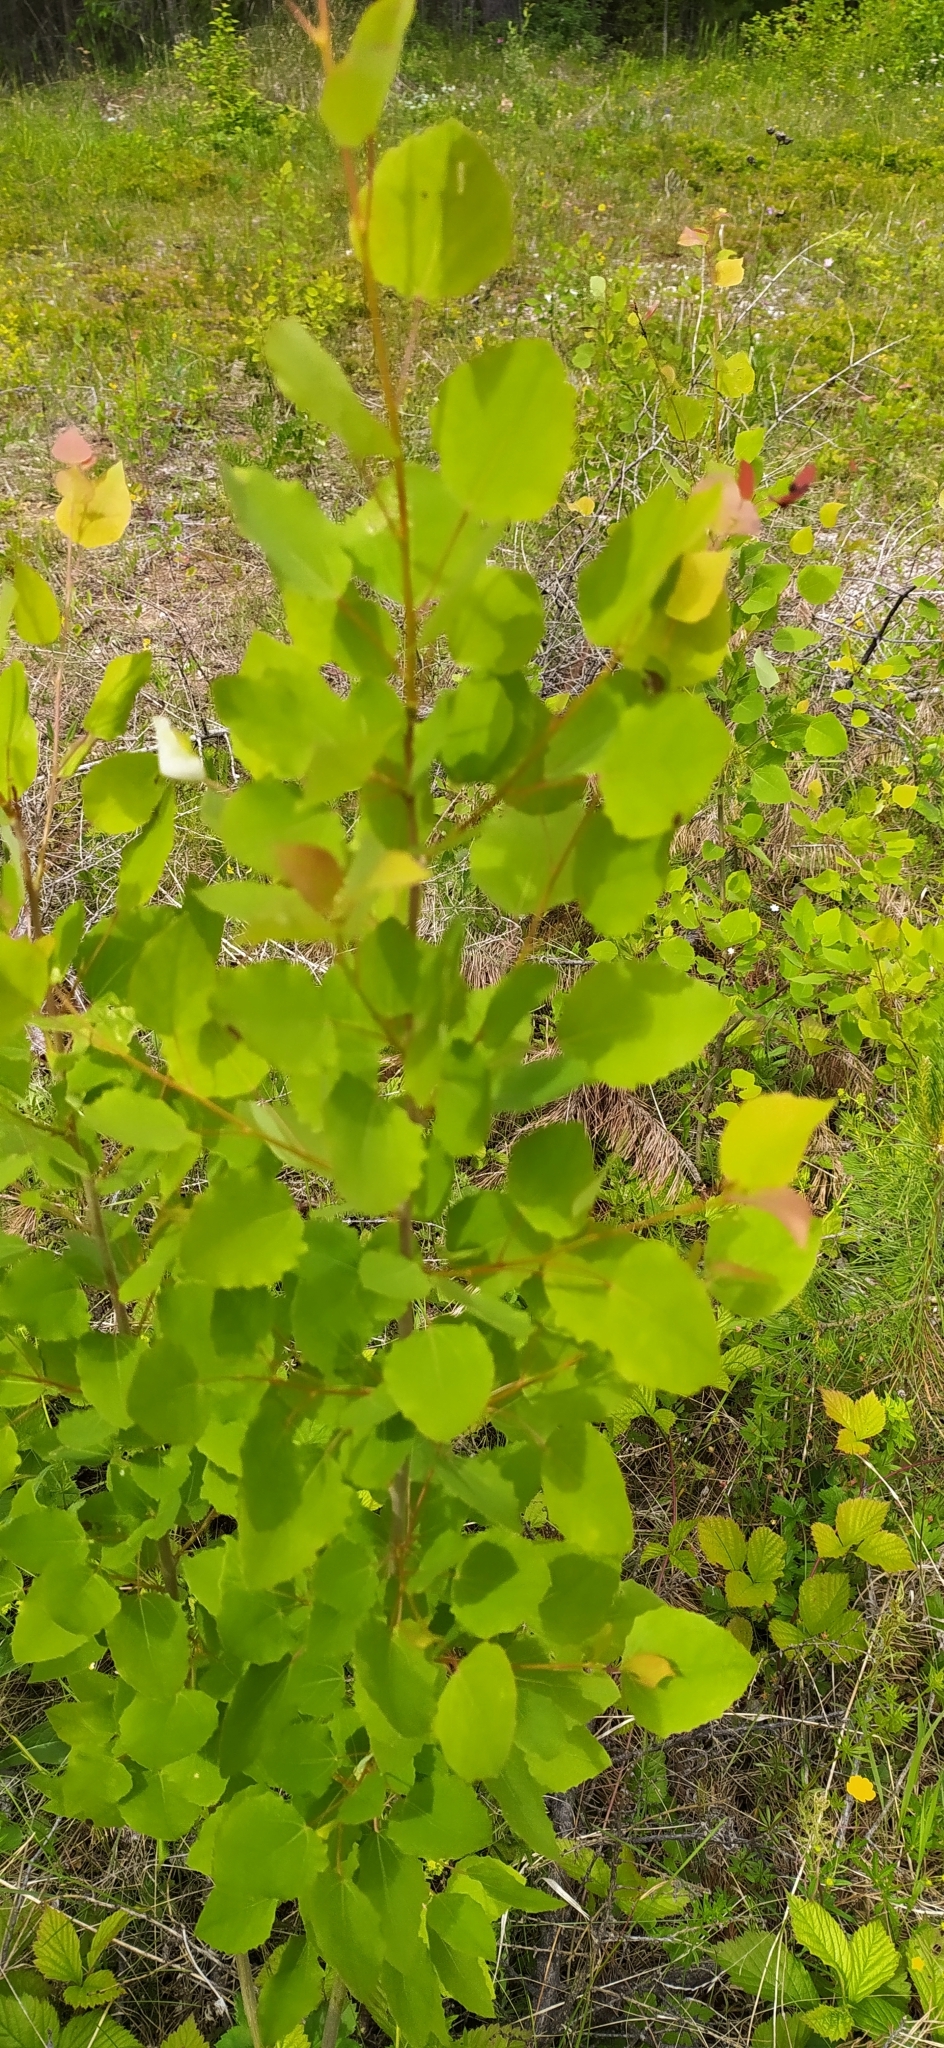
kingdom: Plantae
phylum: Tracheophyta
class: Magnoliopsida
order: Malpighiales
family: Salicaceae
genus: Populus
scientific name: Populus tremula
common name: European aspen
